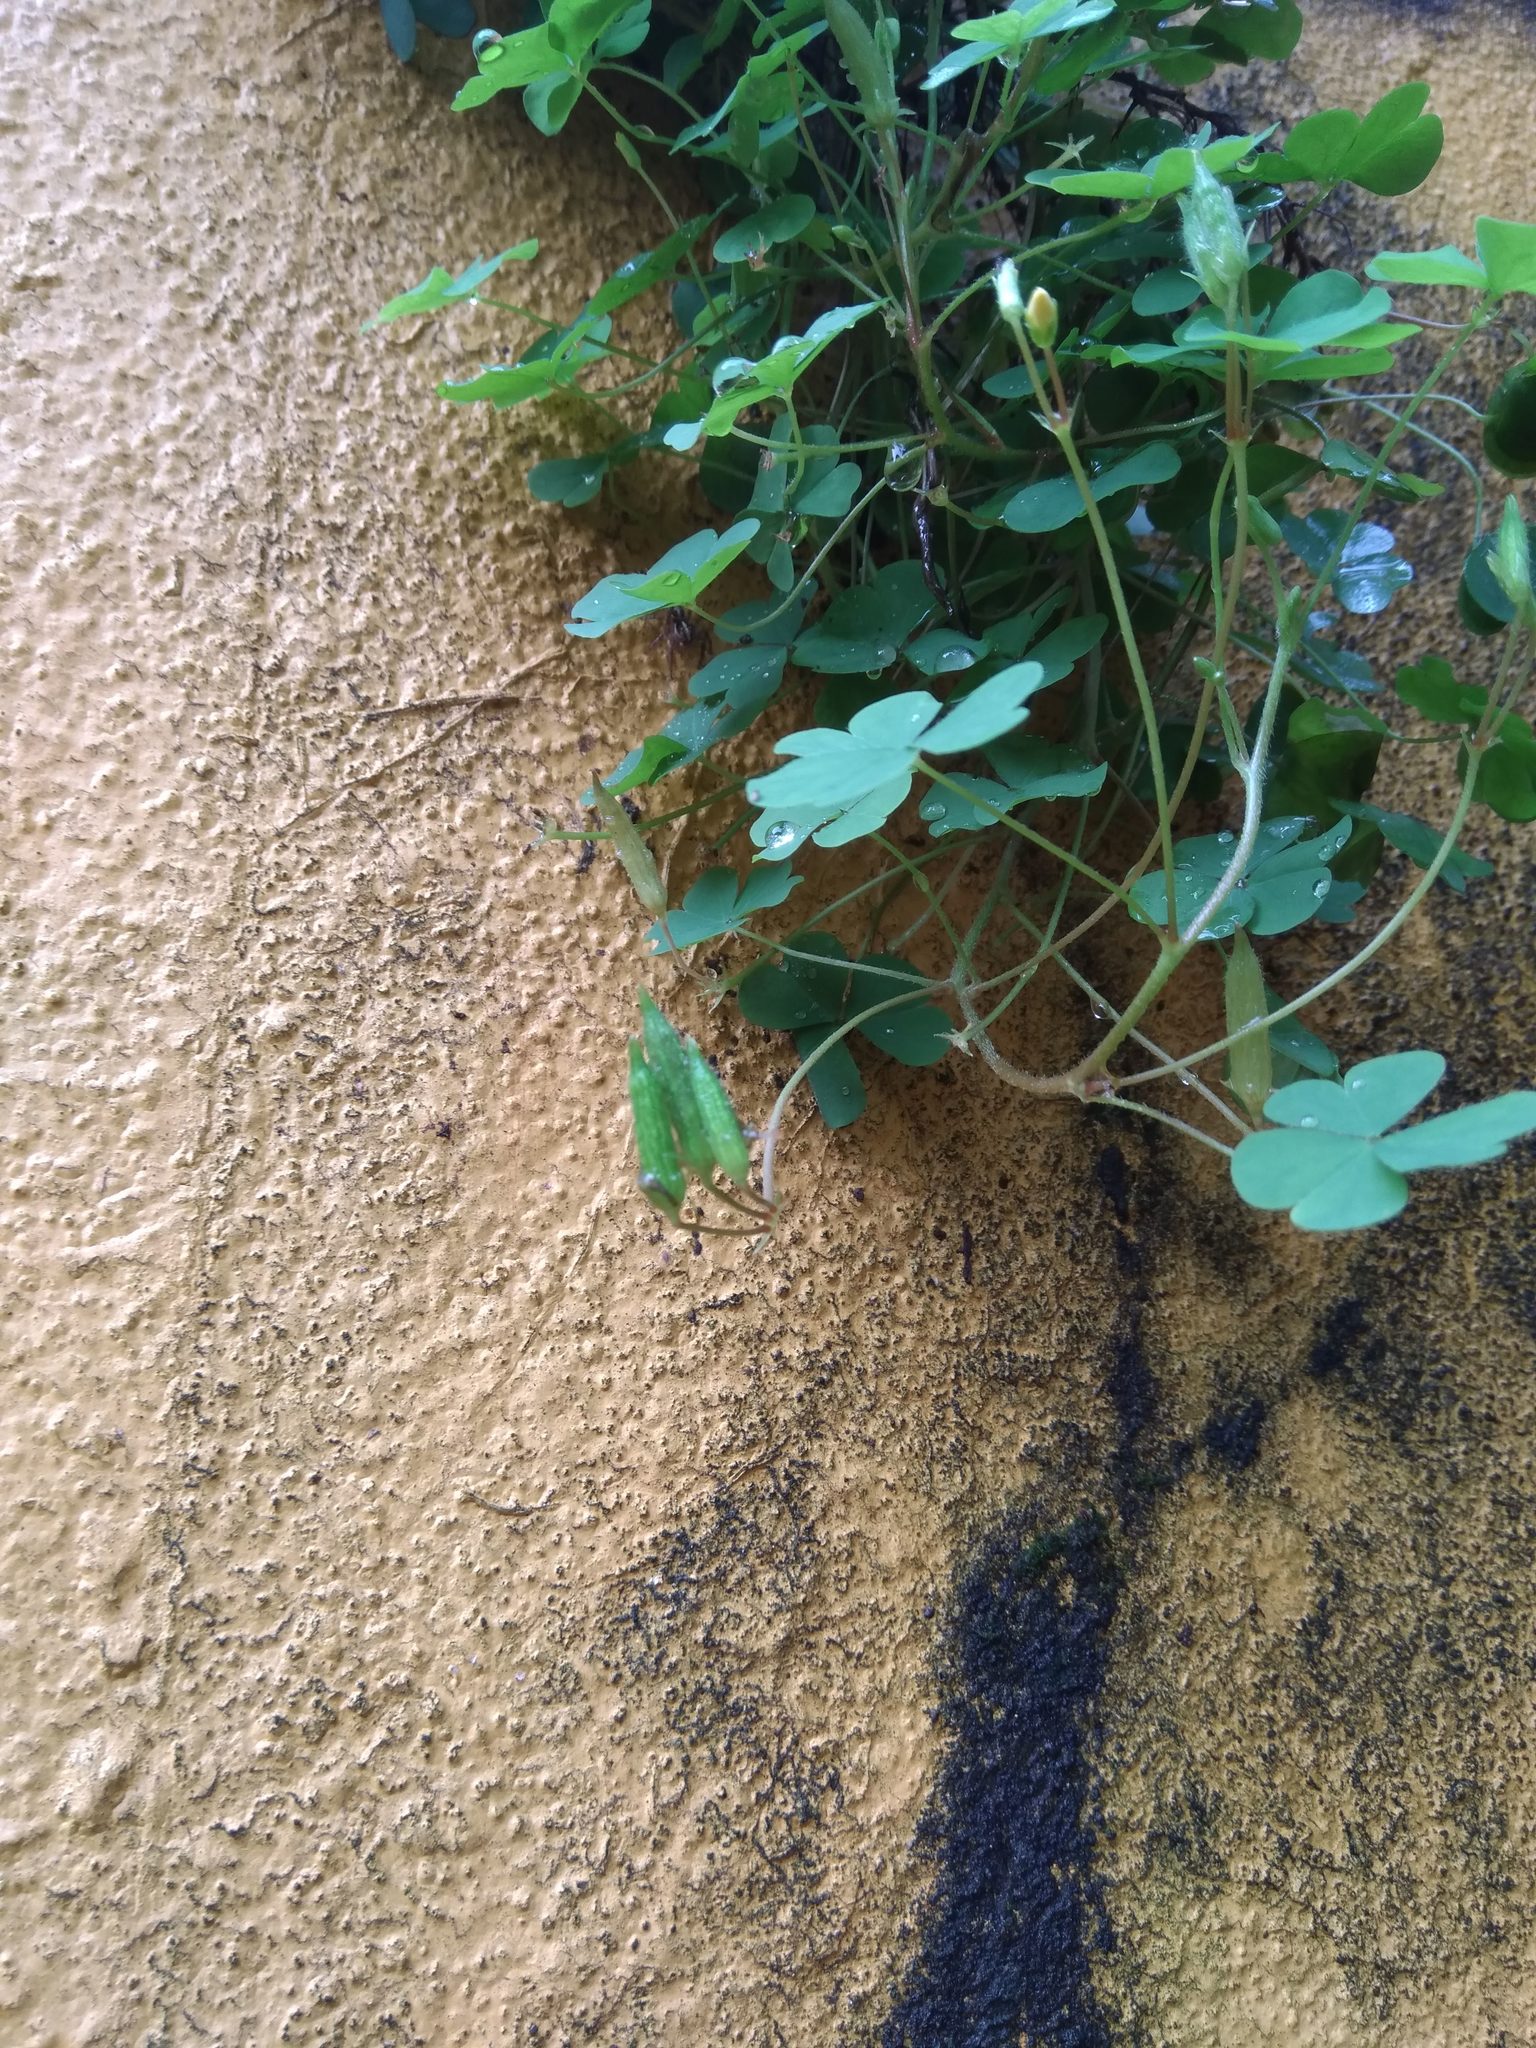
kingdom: Plantae
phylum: Tracheophyta
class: Magnoliopsida
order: Oxalidales
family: Oxalidaceae
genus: Oxalis
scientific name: Oxalis corniculata
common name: Procumbent yellow-sorrel
